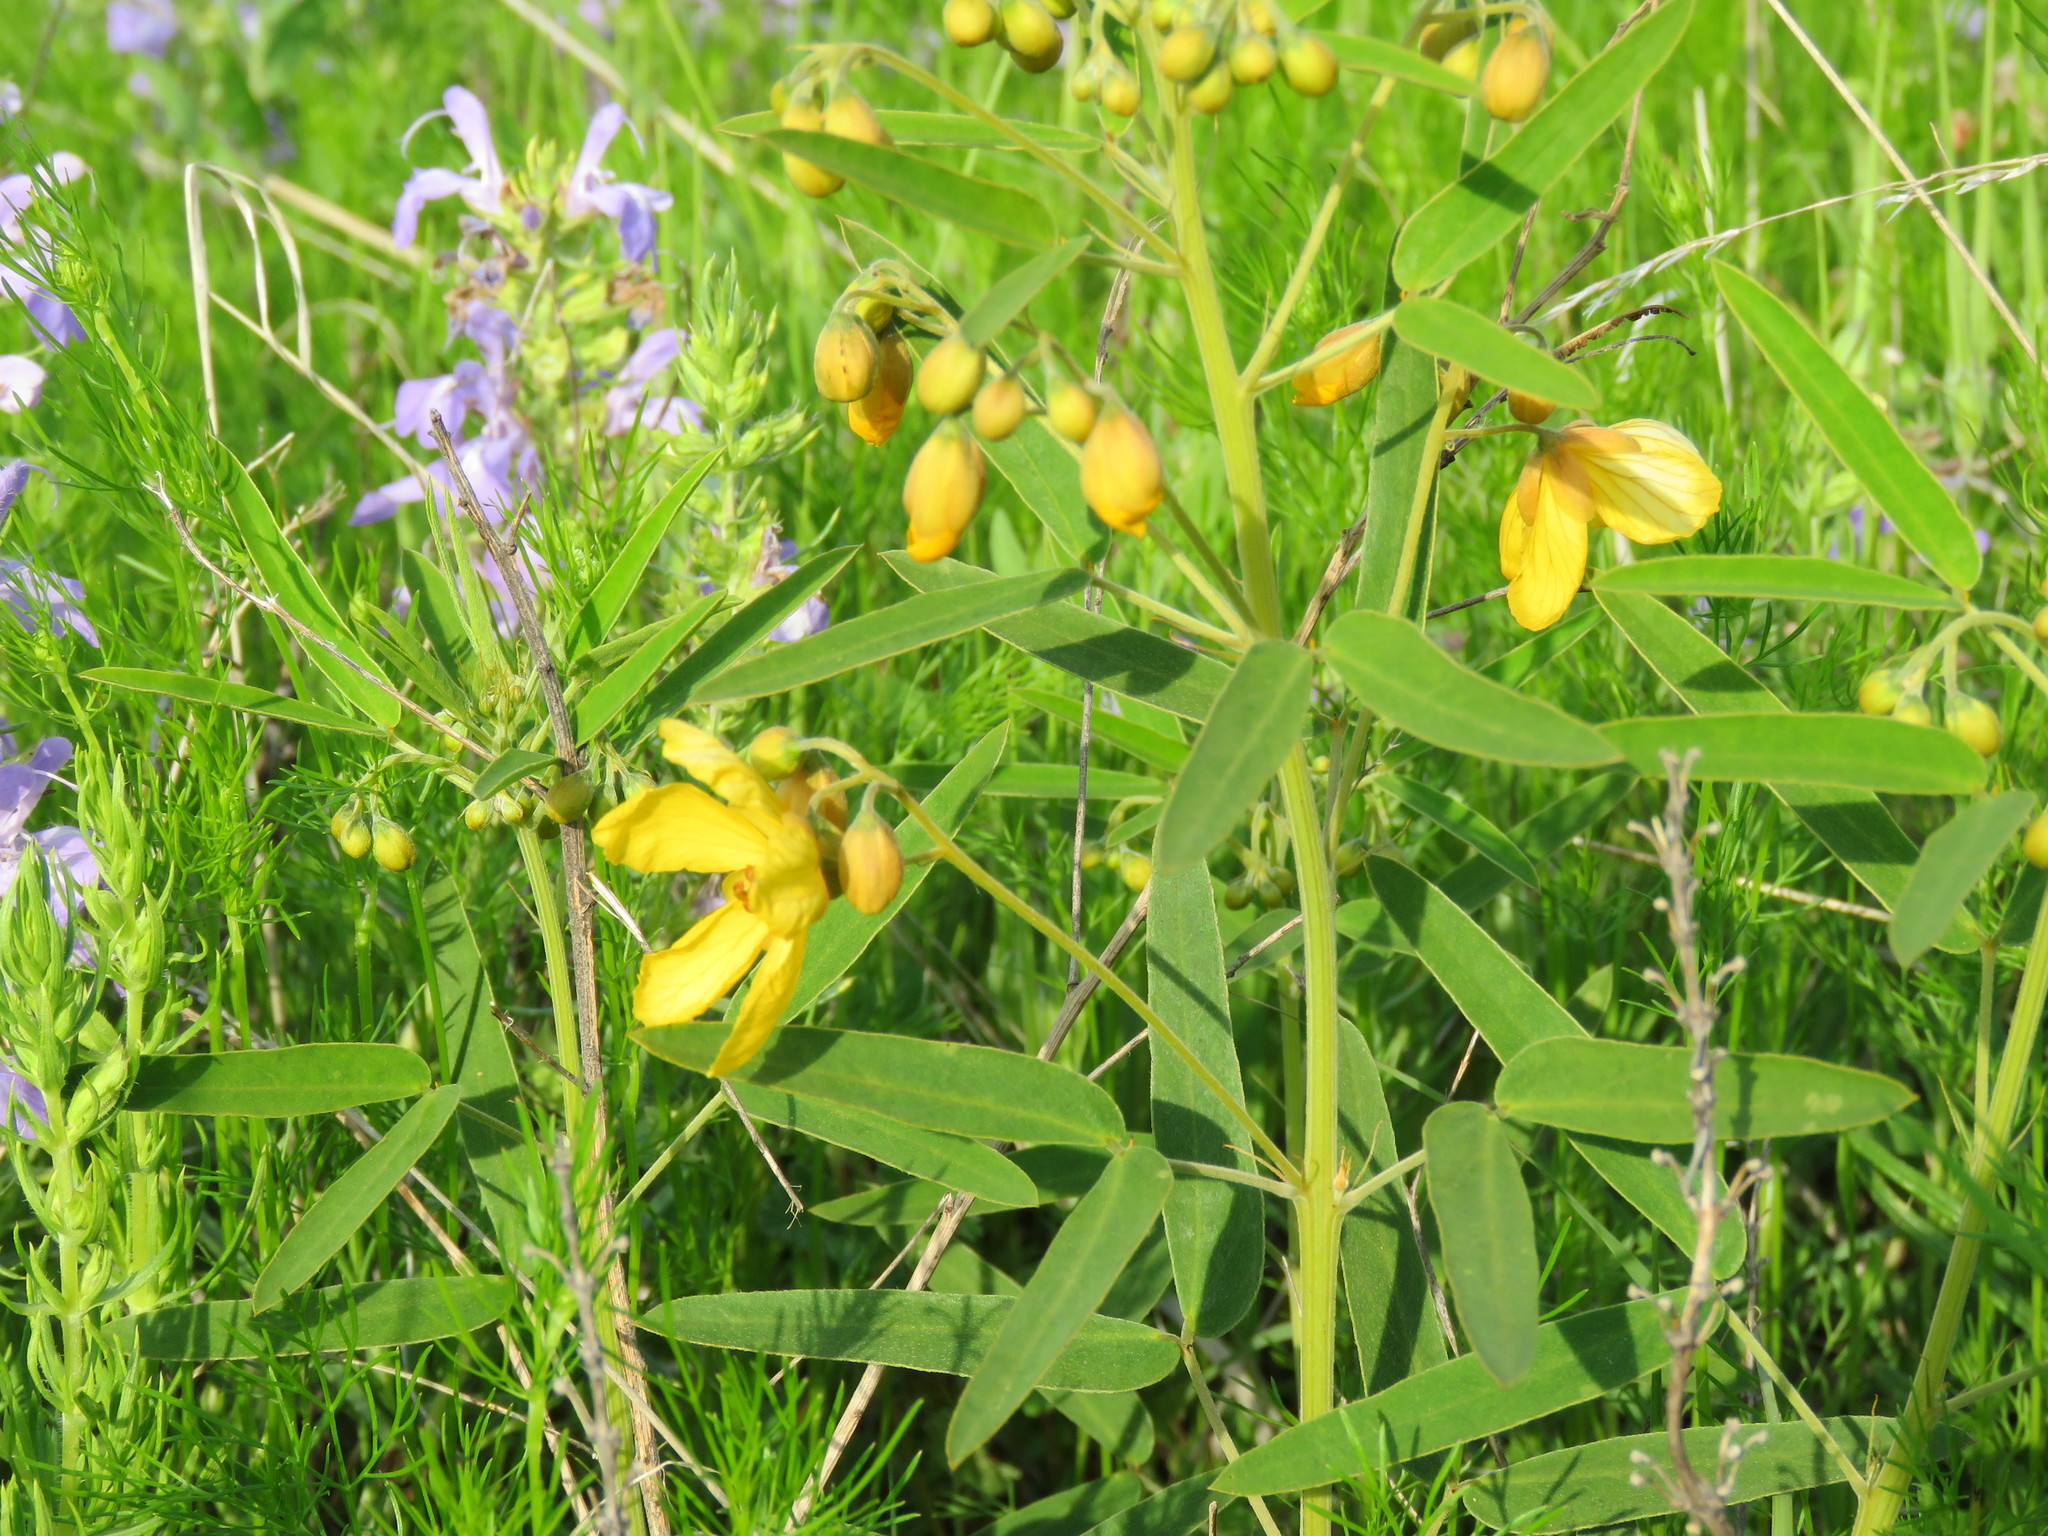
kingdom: Plantae
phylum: Tracheophyta
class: Magnoliopsida
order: Fabales
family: Fabaceae
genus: Senna
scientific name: Senna roemeriana
